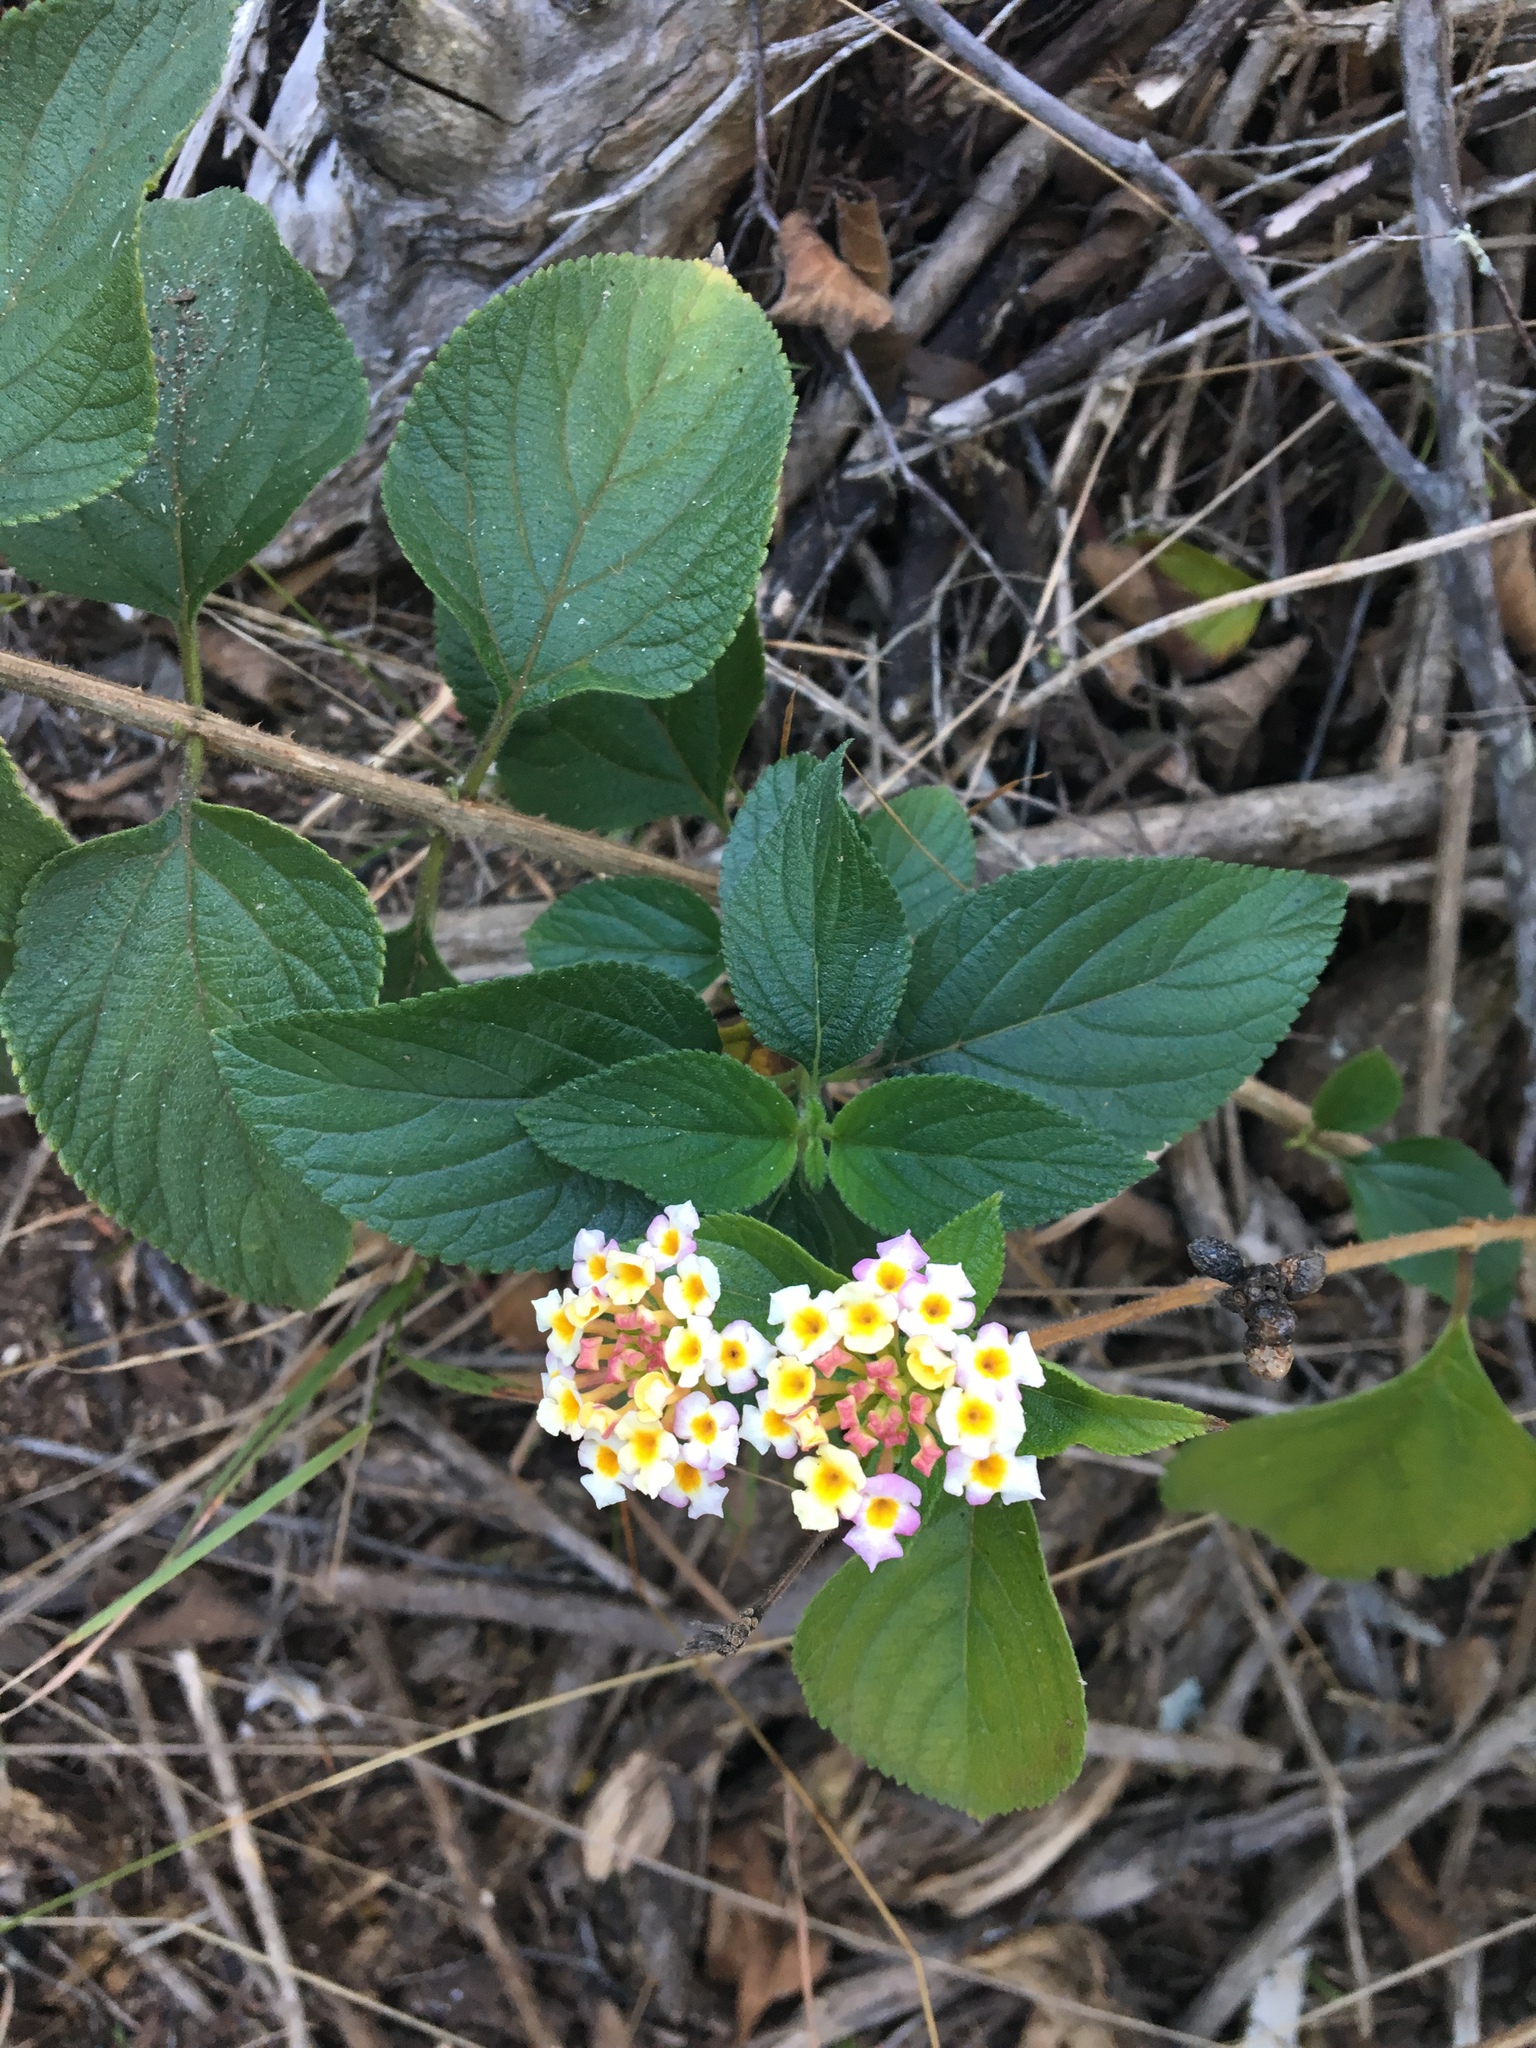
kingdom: Plantae
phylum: Tracheophyta
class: Magnoliopsida
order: Lamiales
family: Verbenaceae
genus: Lantana
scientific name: Lantana camara
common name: Lantana
